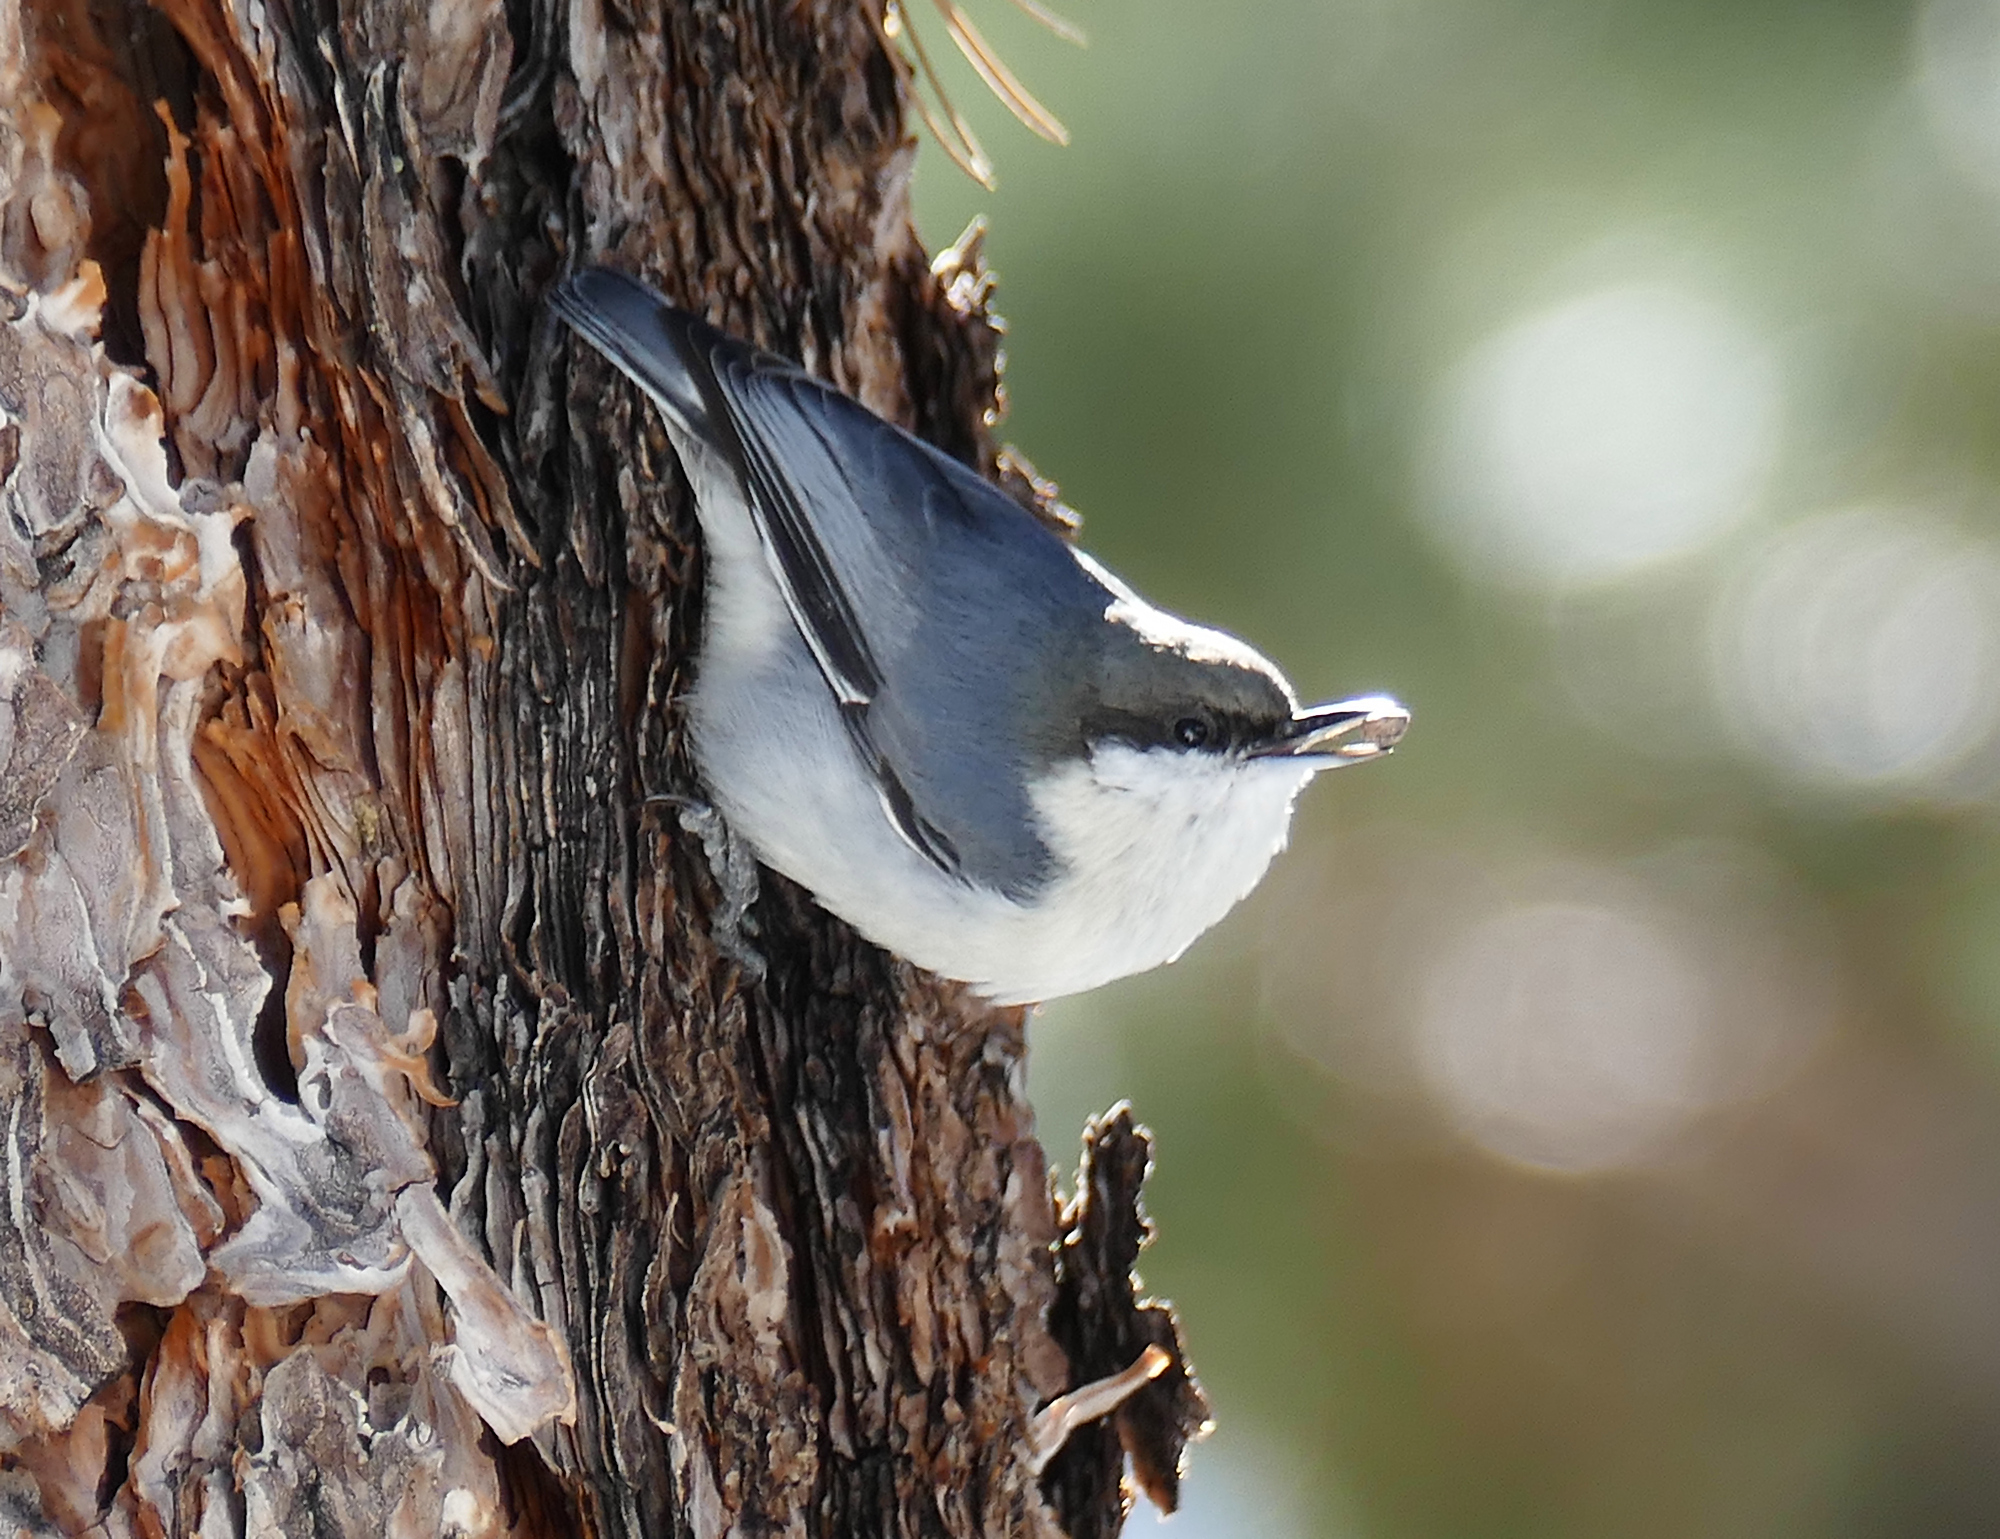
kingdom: Animalia
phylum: Chordata
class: Aves
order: Passeriformes
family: Sittidae
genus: Sitta
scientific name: Sitta pygmaea
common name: Pygmy nuthatch
